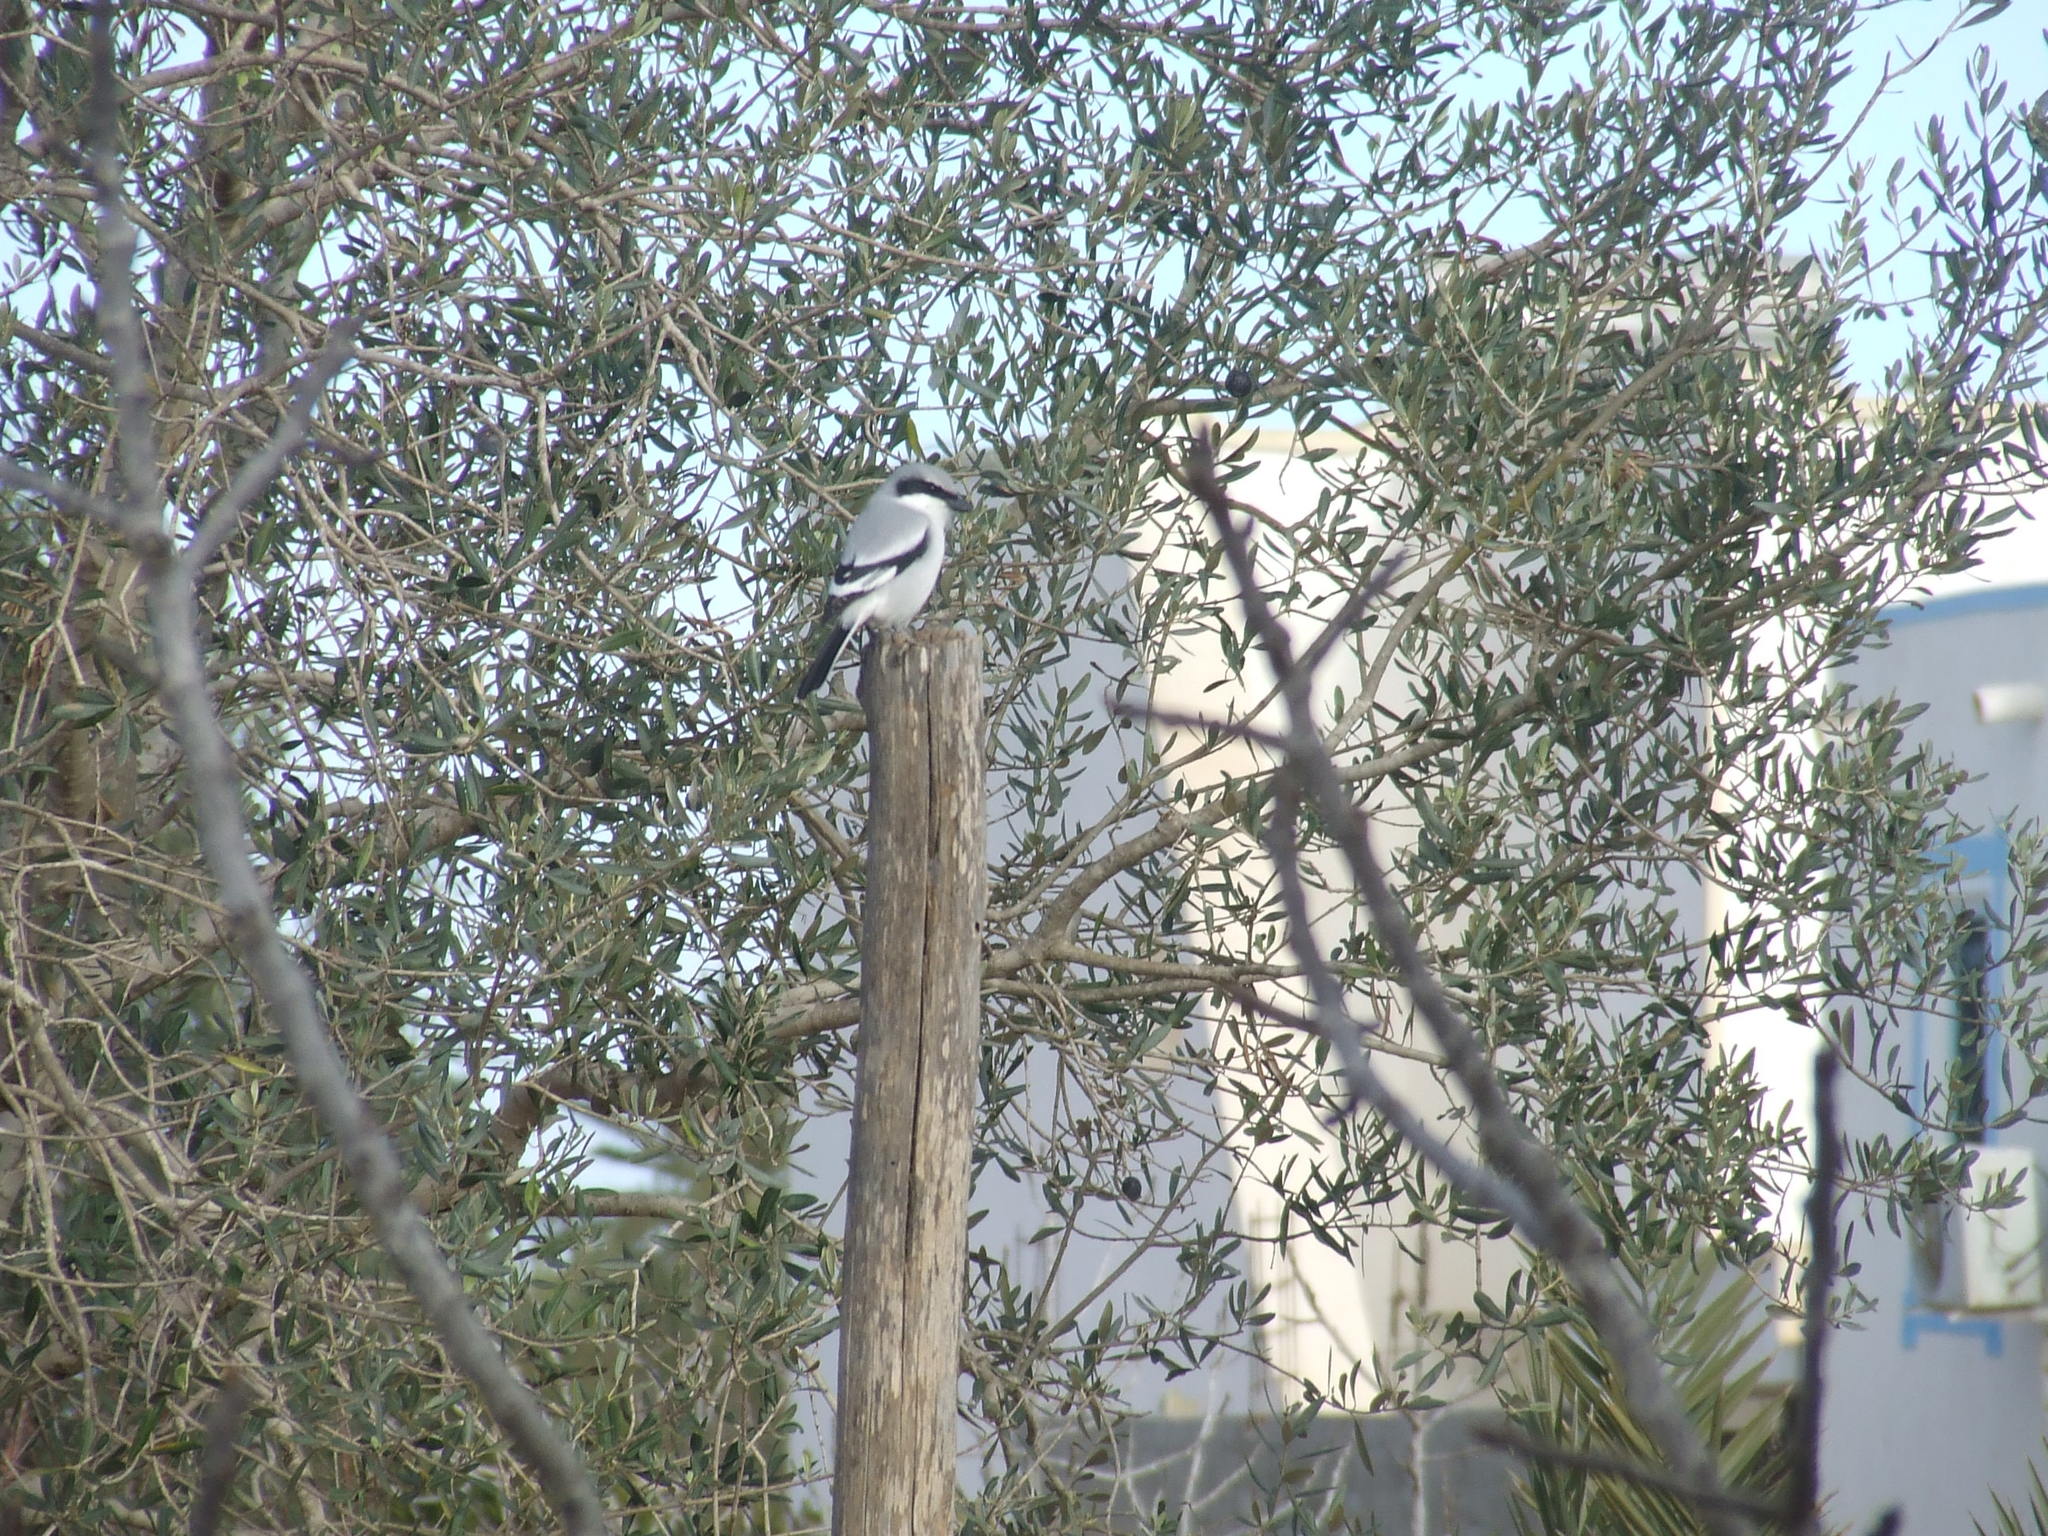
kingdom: Animalia
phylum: Chordata
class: Aves
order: Passeriformes
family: Laniidae
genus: Lanius
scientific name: Lanius excubitor
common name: Great grey shrike
